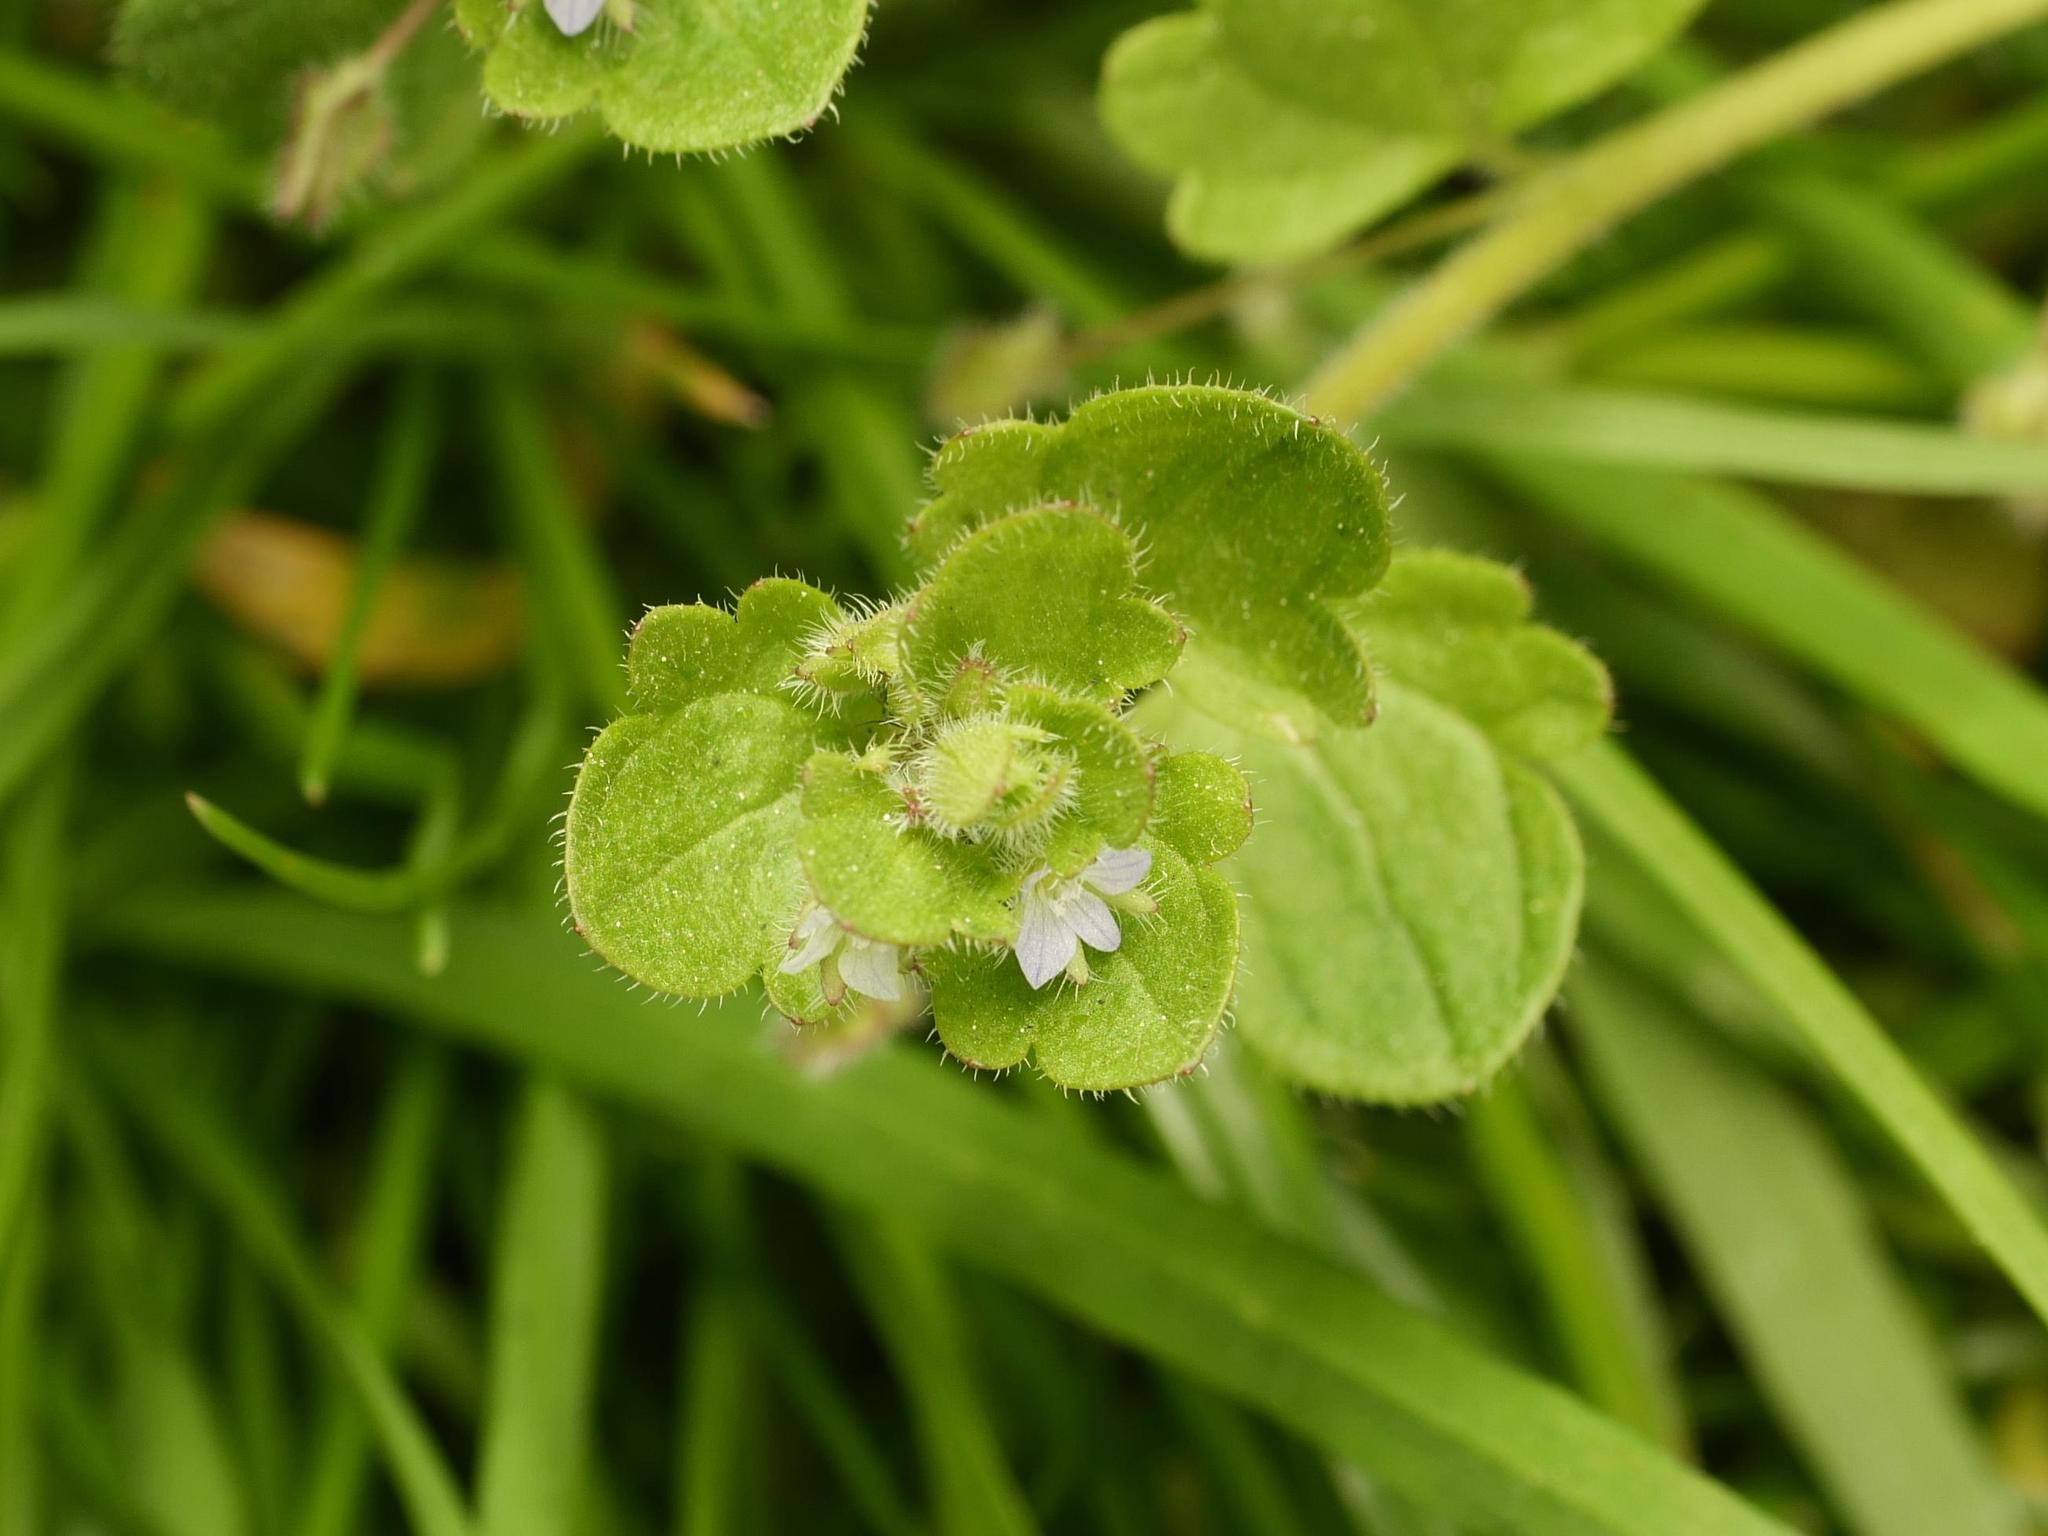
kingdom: Plantae
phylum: Tracheophyta
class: Magnoliopsida
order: Lamiales
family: Plantaginaceae
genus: Veronica
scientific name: Veronica sublobata
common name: False ivy-leaved speedwell
